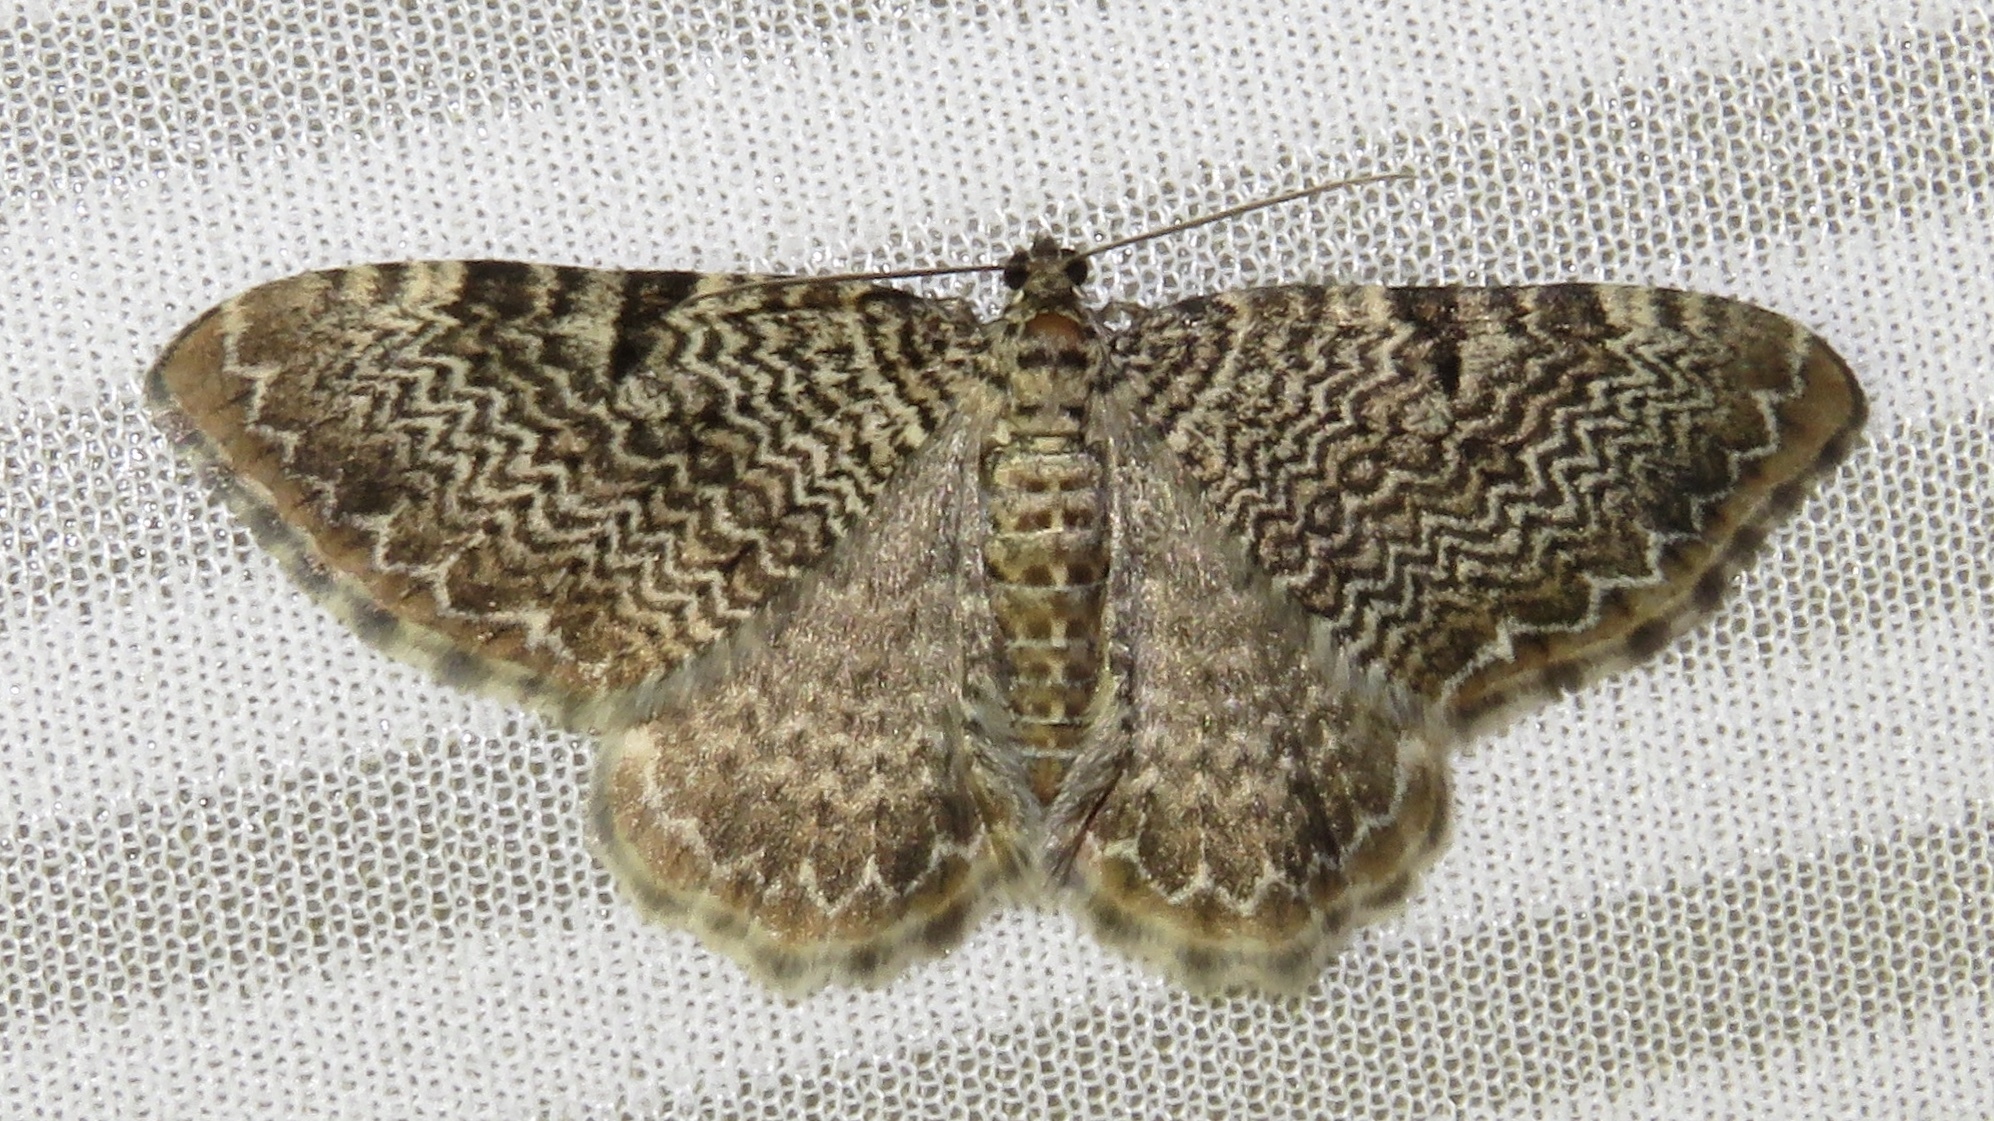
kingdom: Animalia
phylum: Arthropoda
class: Insecta
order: Lepidoptera
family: Geometridae
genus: Rheumaptera
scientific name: Rheumaptera
